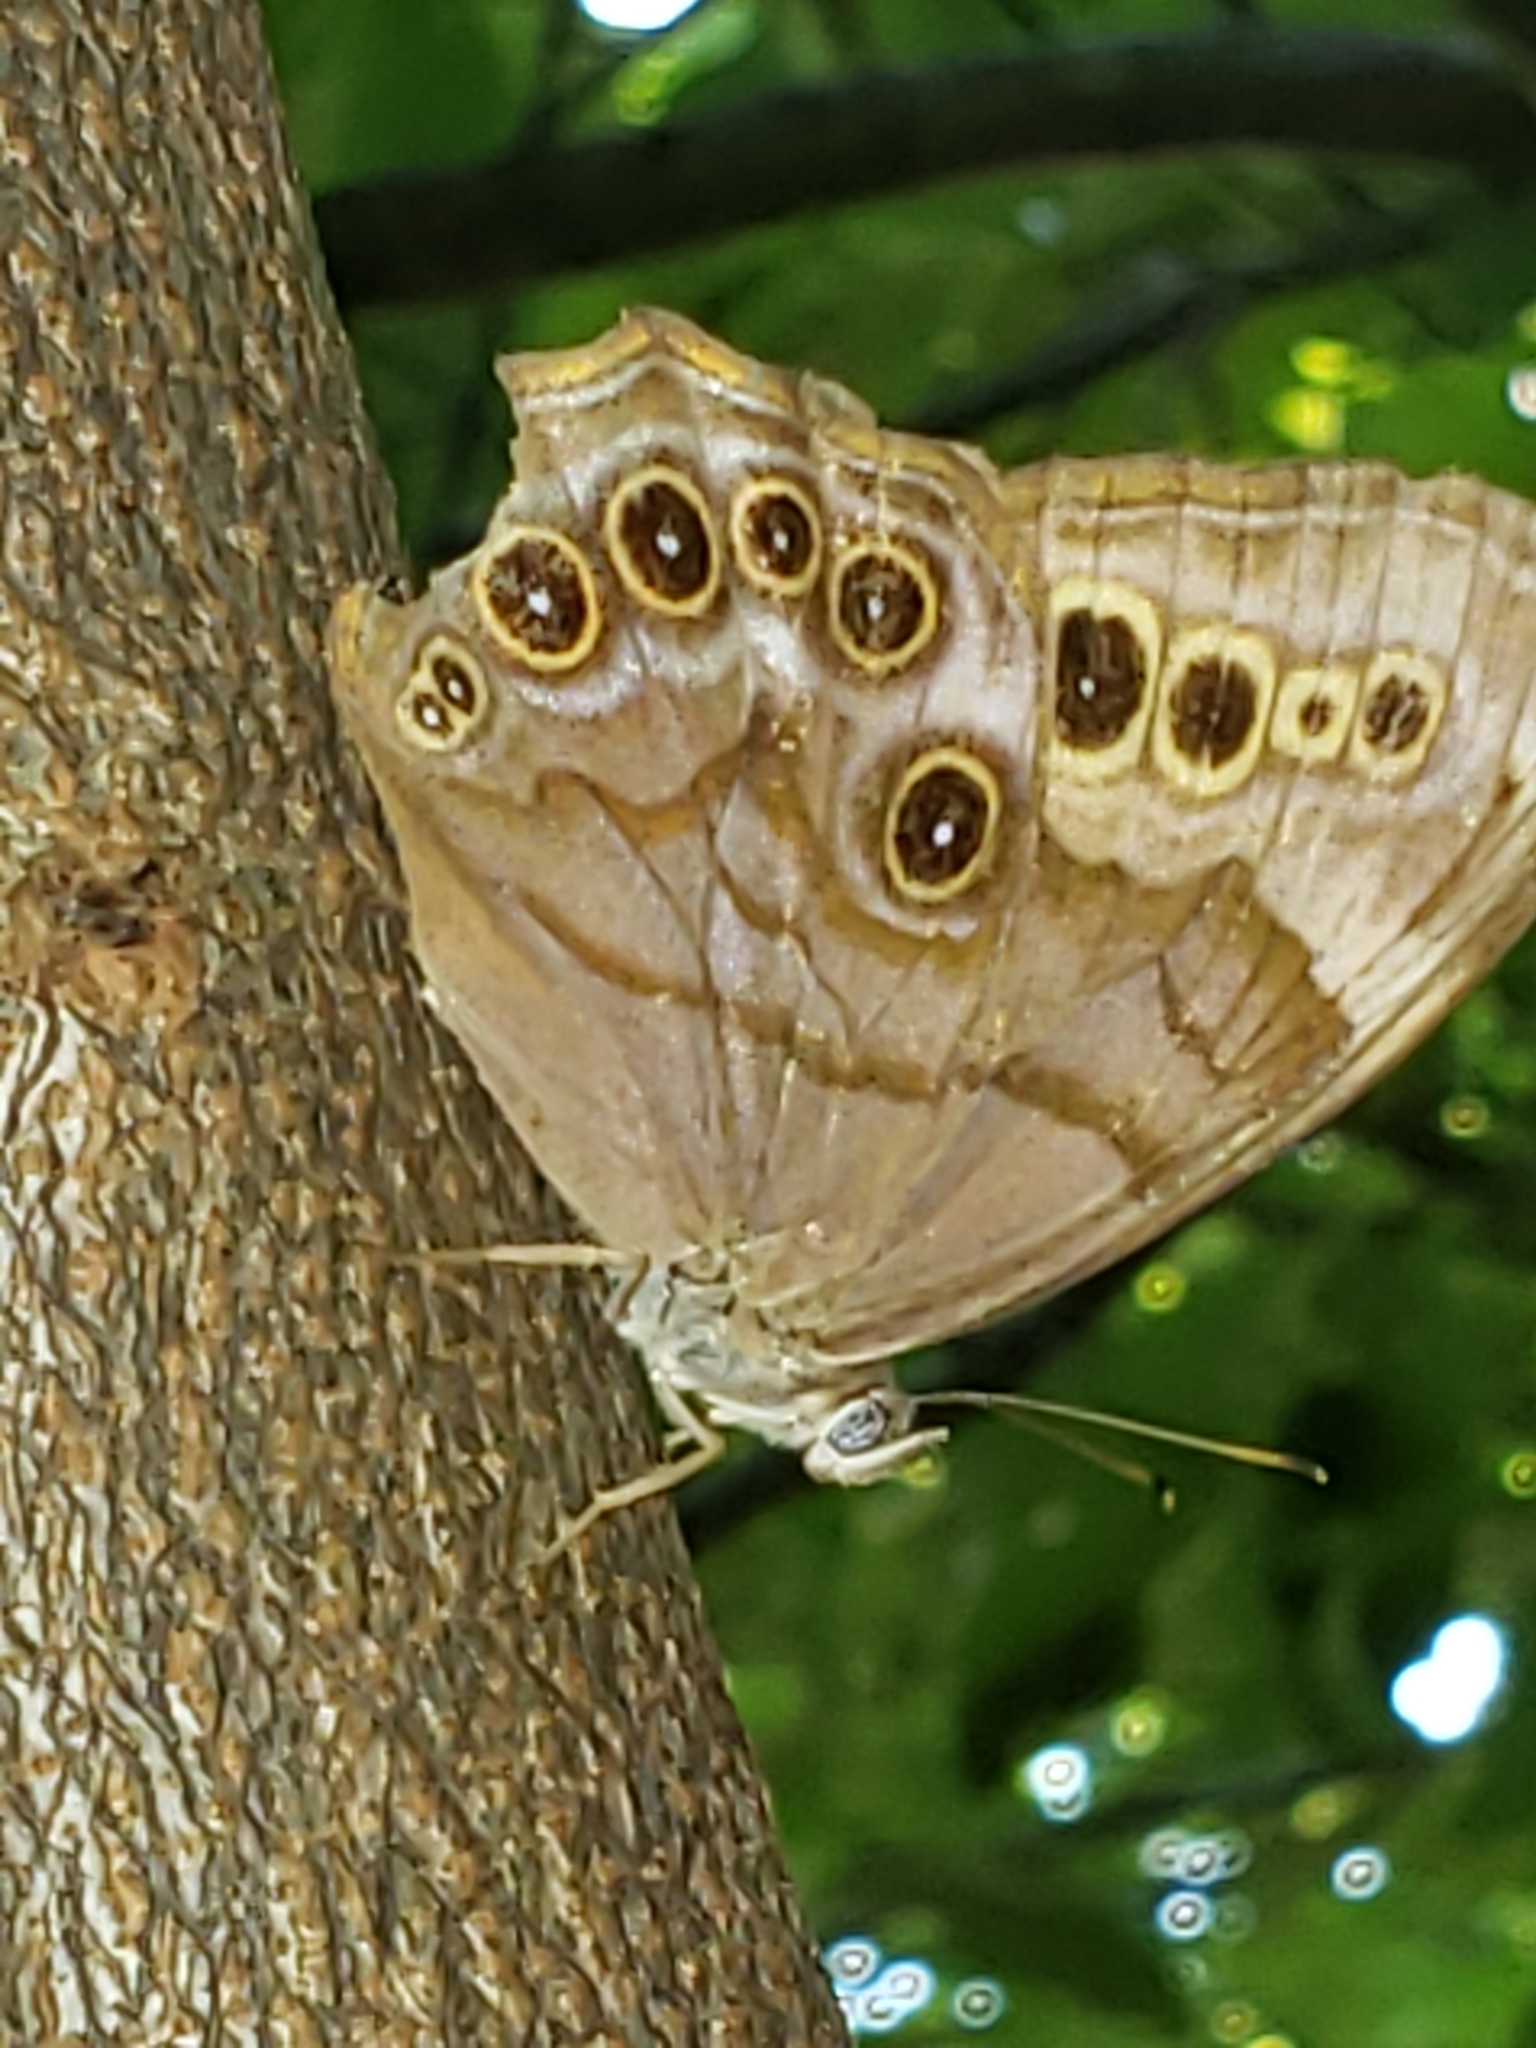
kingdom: Animalia
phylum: Arthropoda
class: Insecta
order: Lepidoptera
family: Nymphalidae
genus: Lethe
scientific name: Lethe anthedon
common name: Northern pearly-eye
